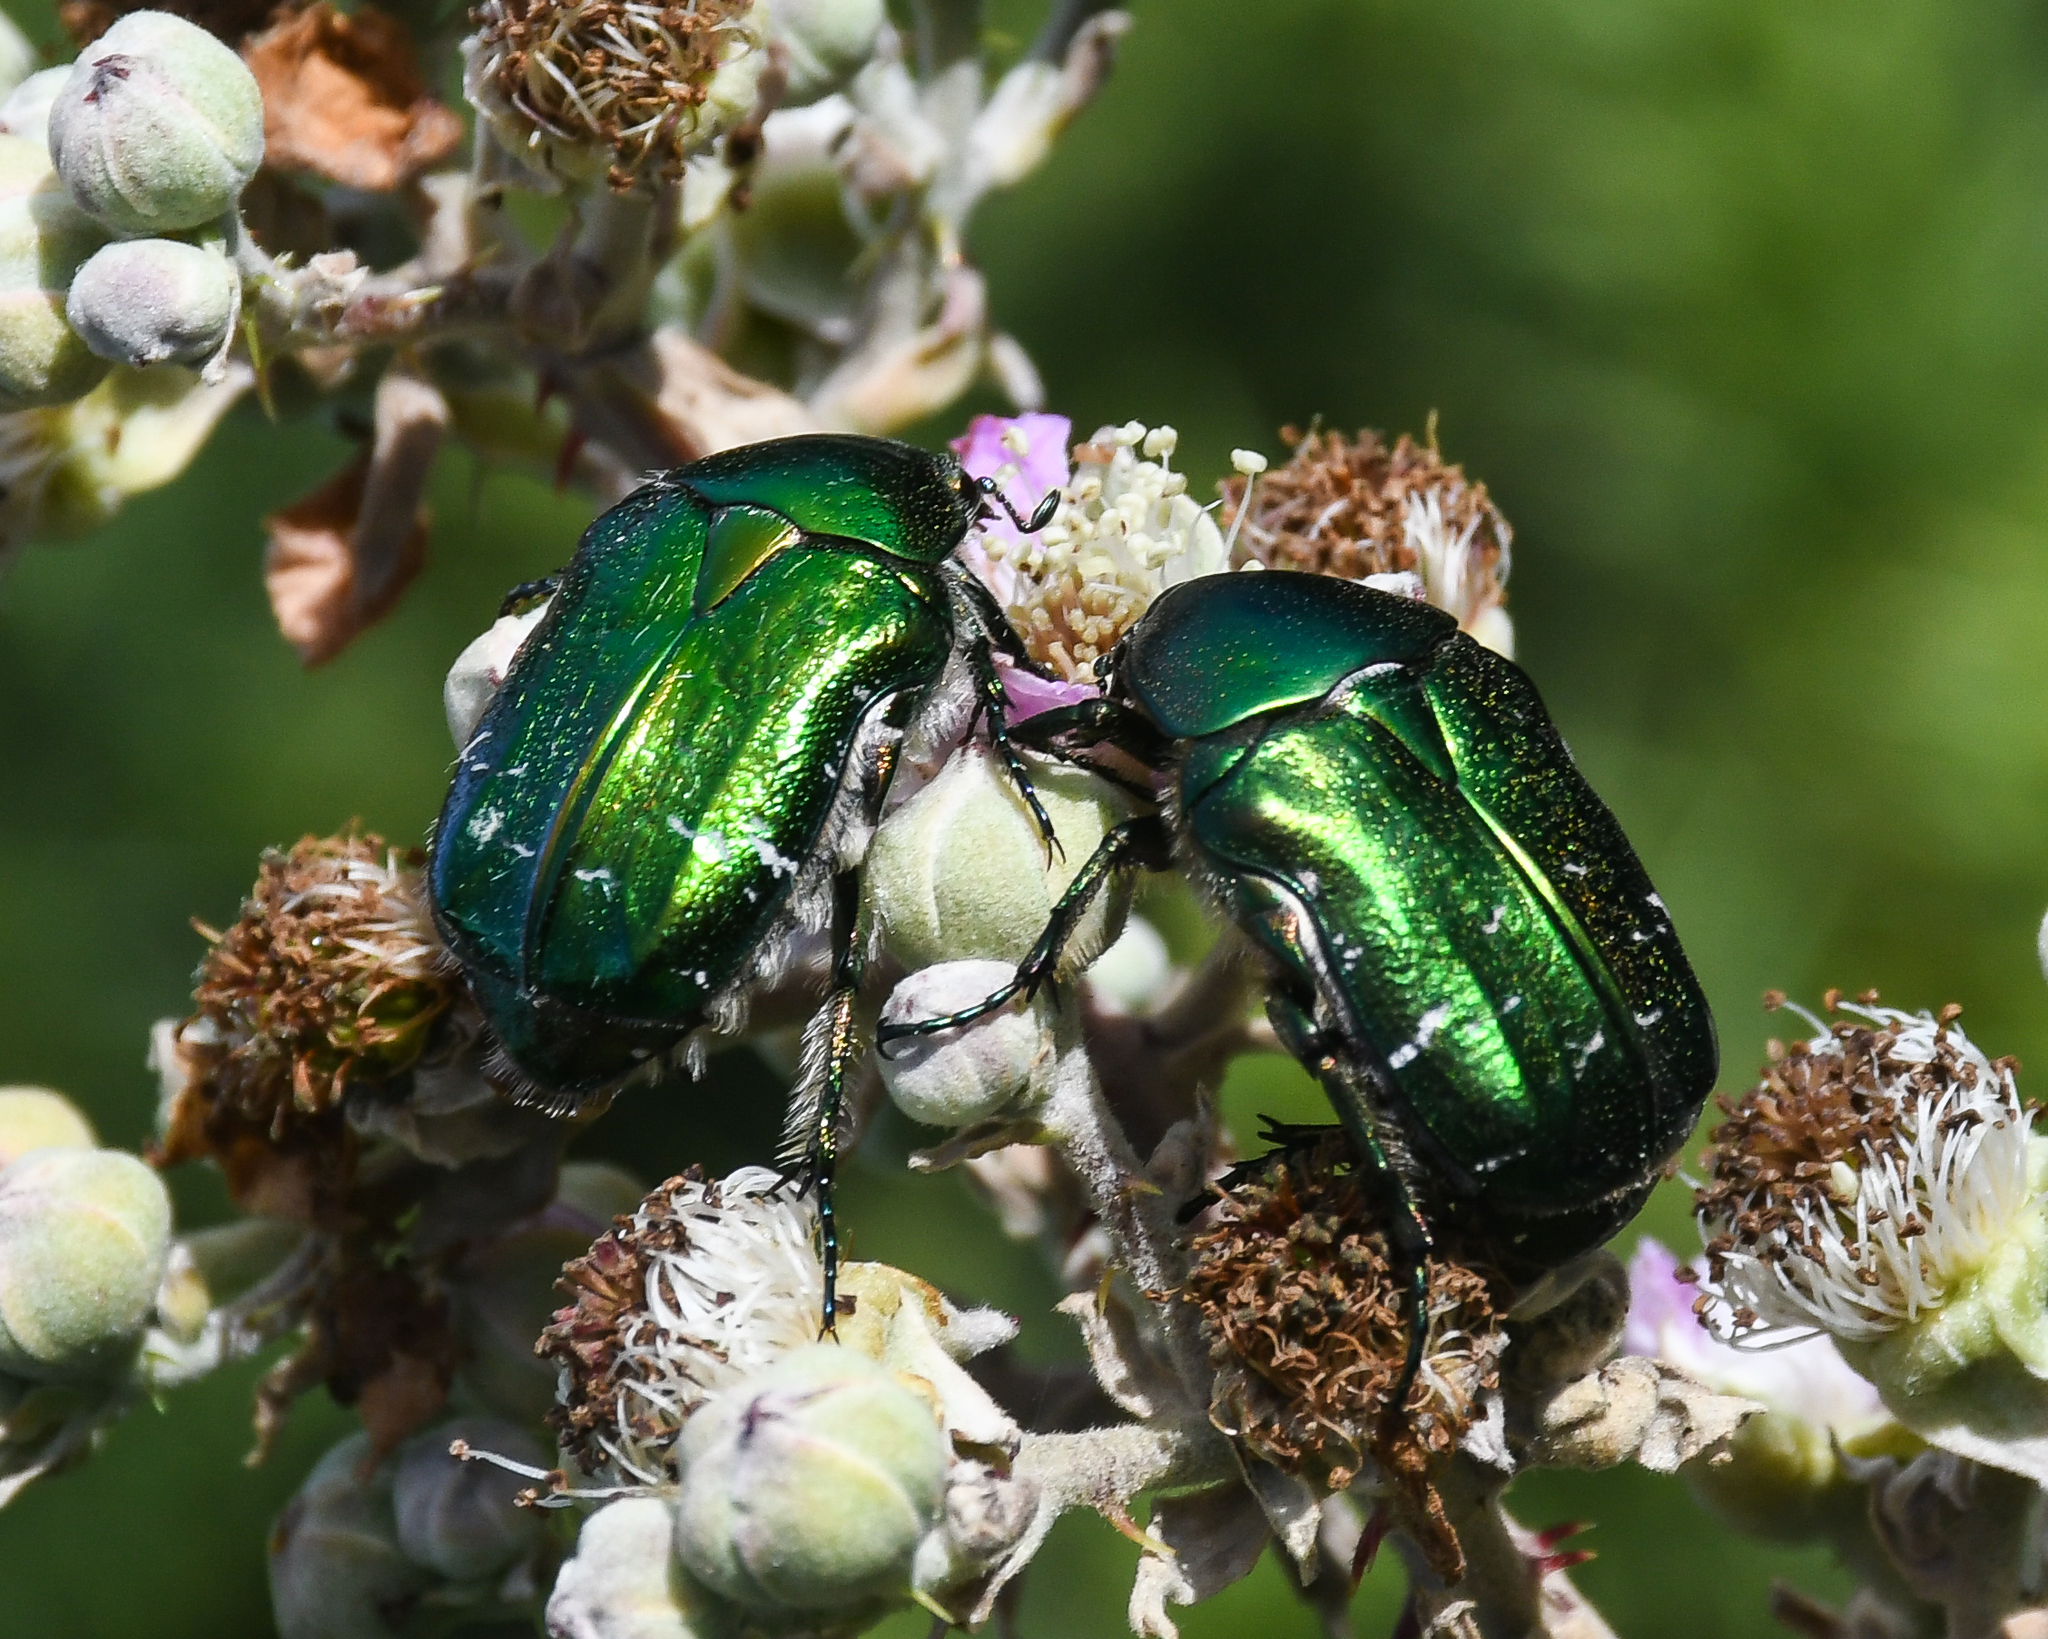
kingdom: Animalia
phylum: Arthropoda
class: Insecta
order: Coleoptera
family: Scarabaeidae
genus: Cetonia
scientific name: Cetonia aurata
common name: Rose chafer
